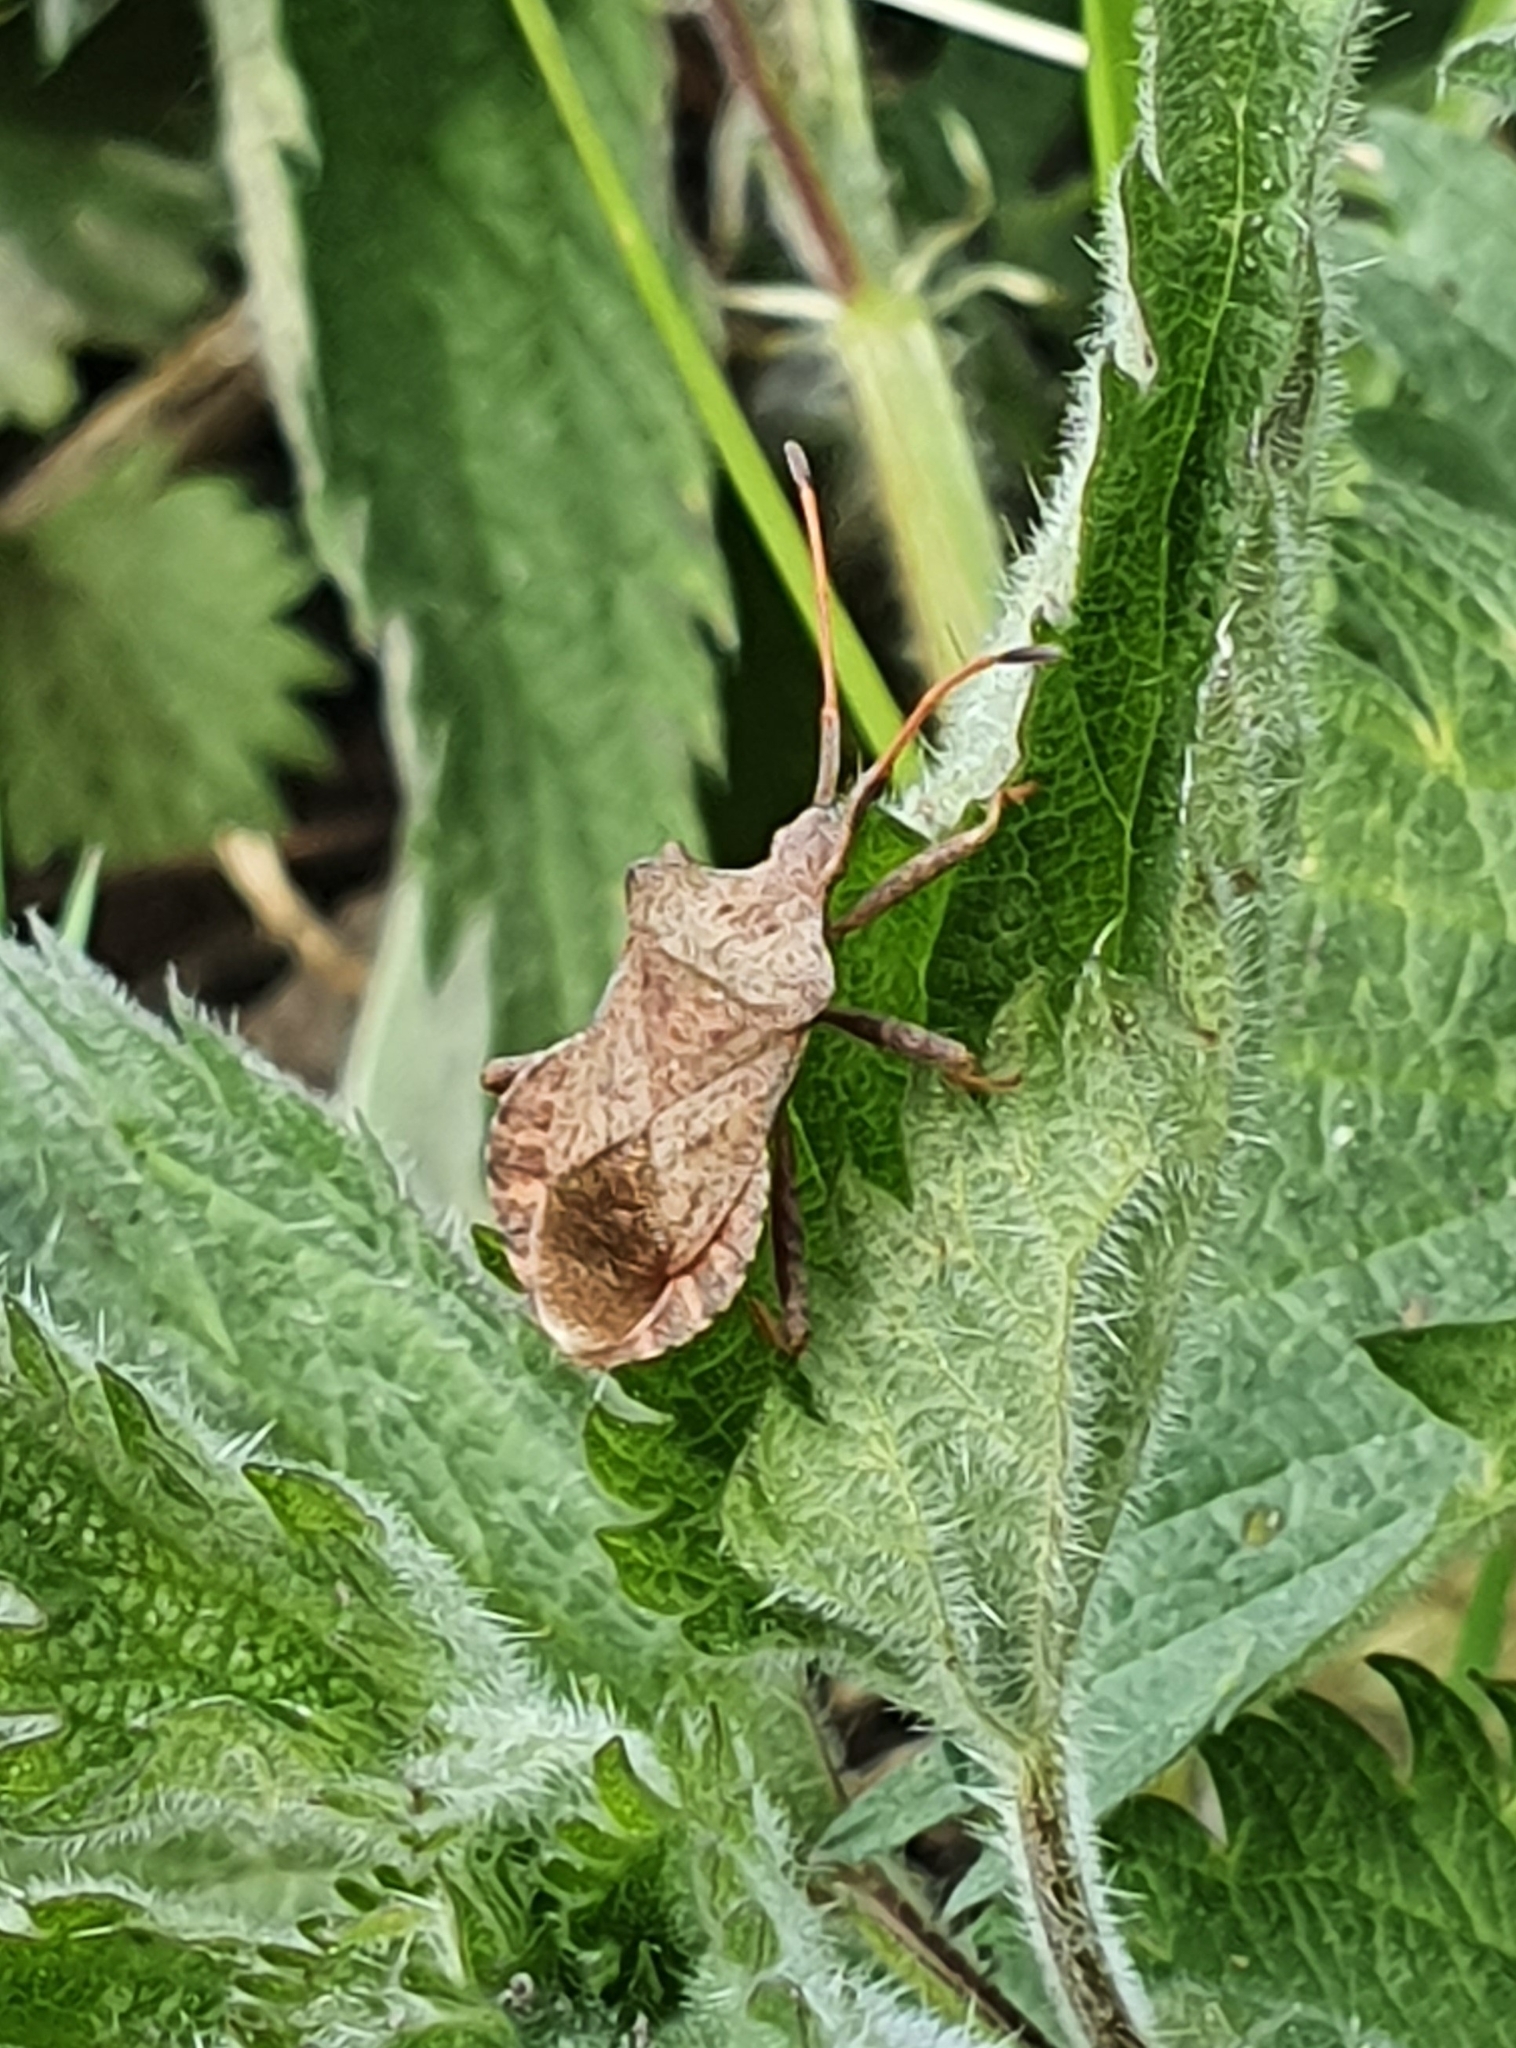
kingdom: Animalia
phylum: Arthropoda
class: Insecta
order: Hemiptera
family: Coreidae
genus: Coreus
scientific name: Coreus marginatus
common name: Dock bug
